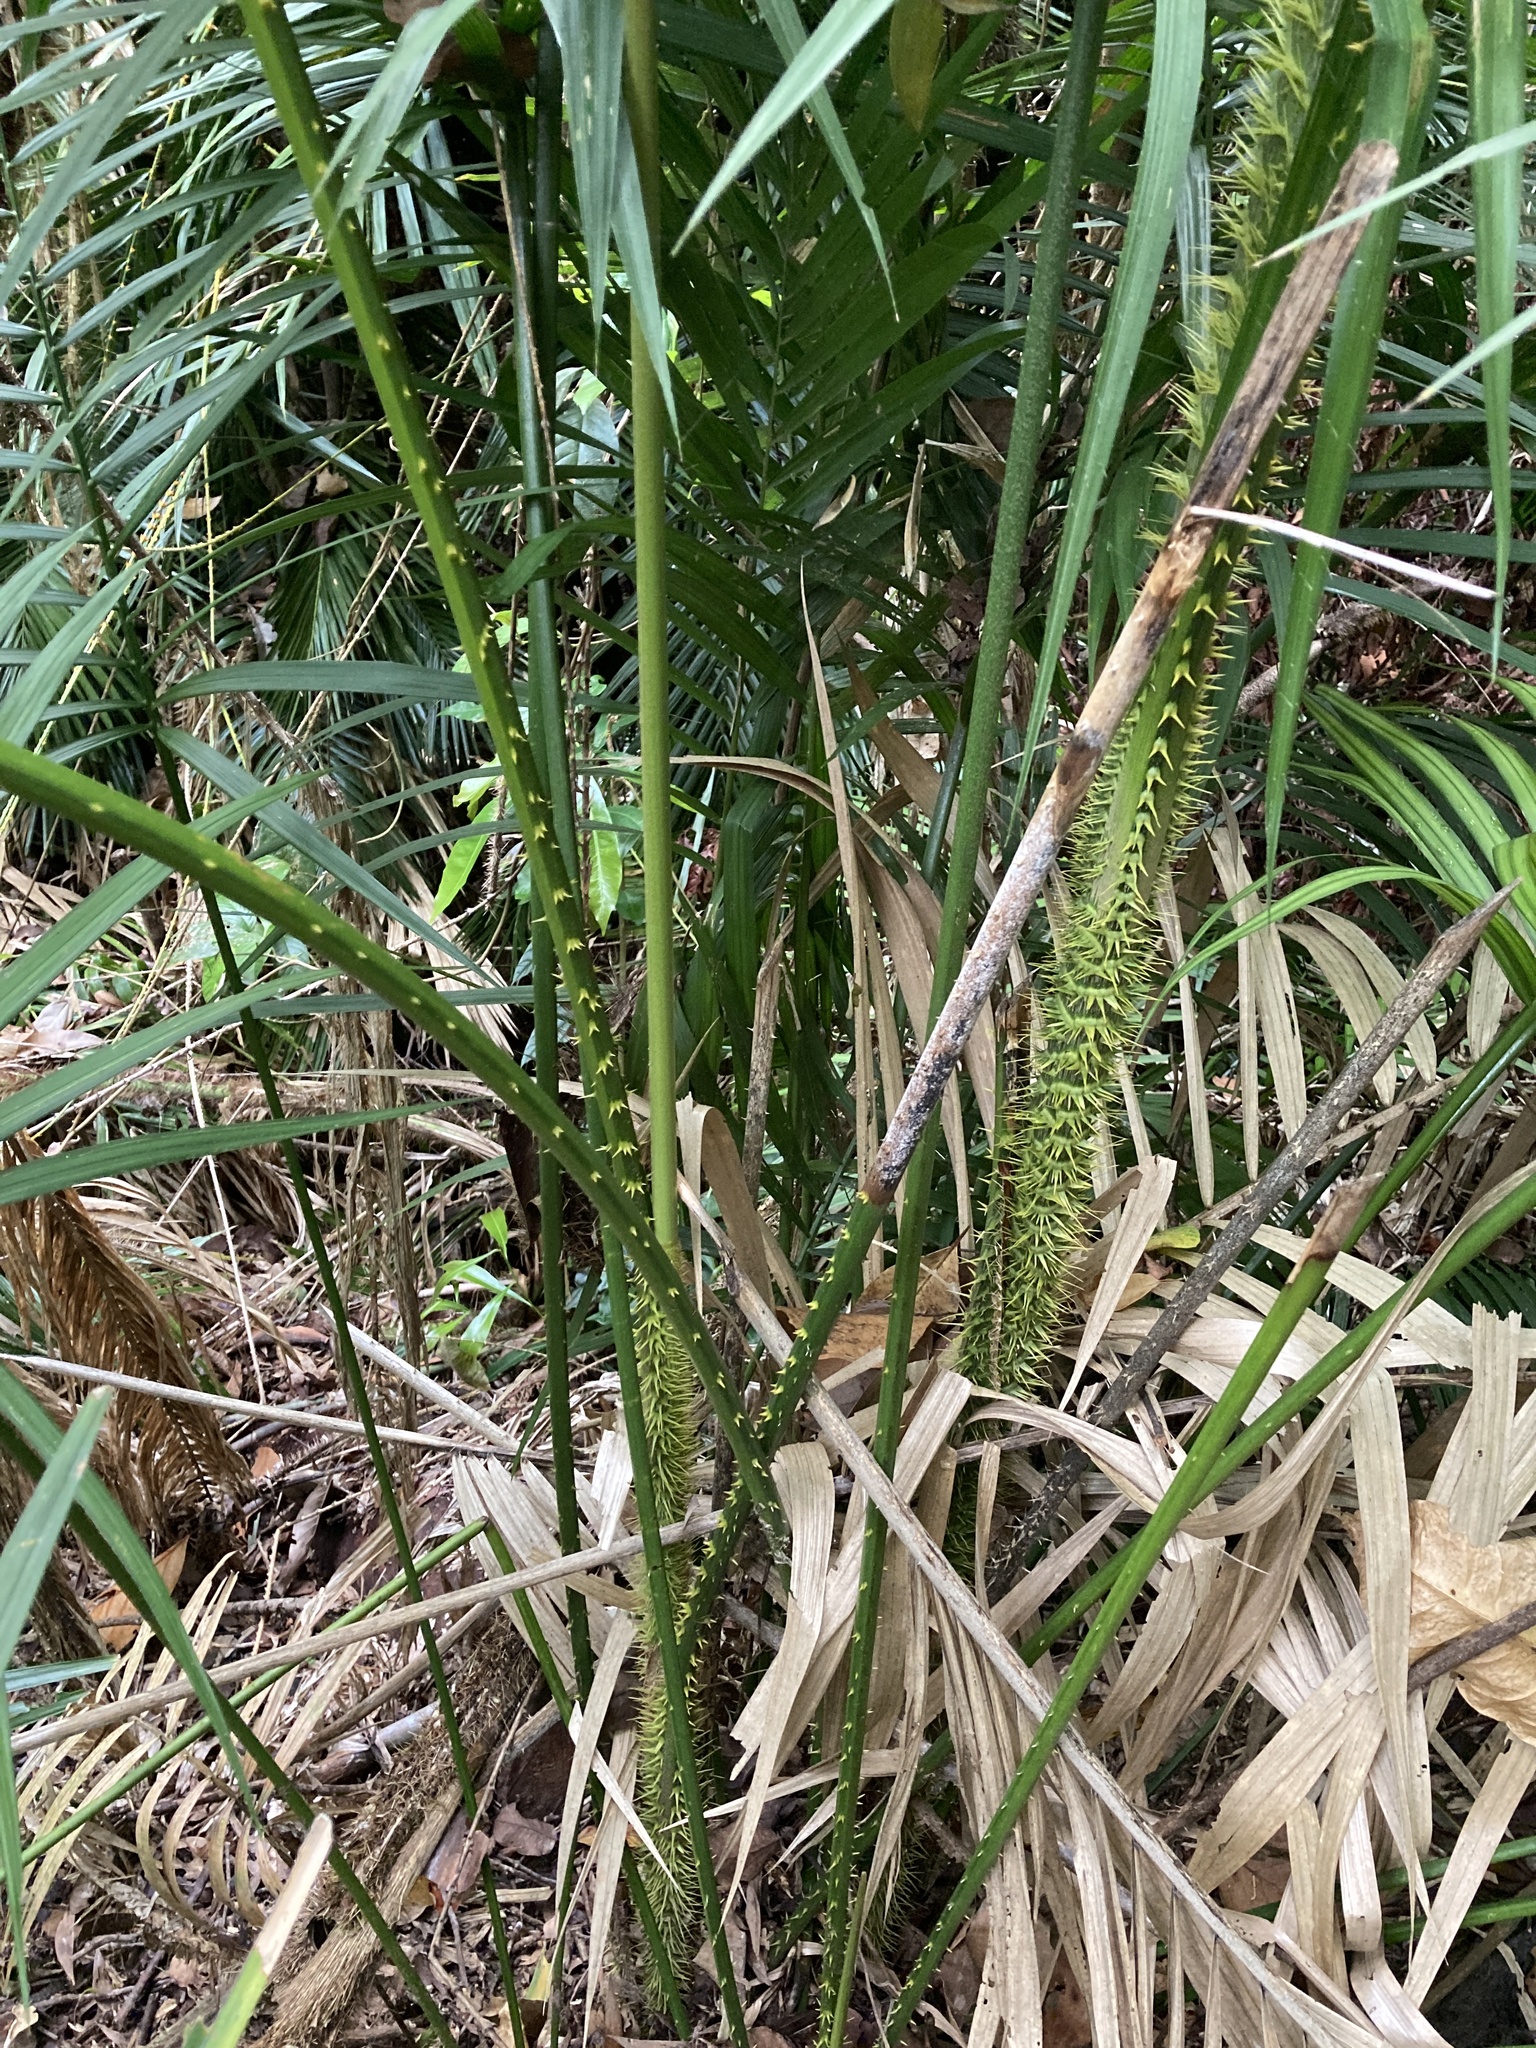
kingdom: Plantae
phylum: Tracheophyta
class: Liliopsida
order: Arecales
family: Arecaceae
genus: Calamus
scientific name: Calamus moti
